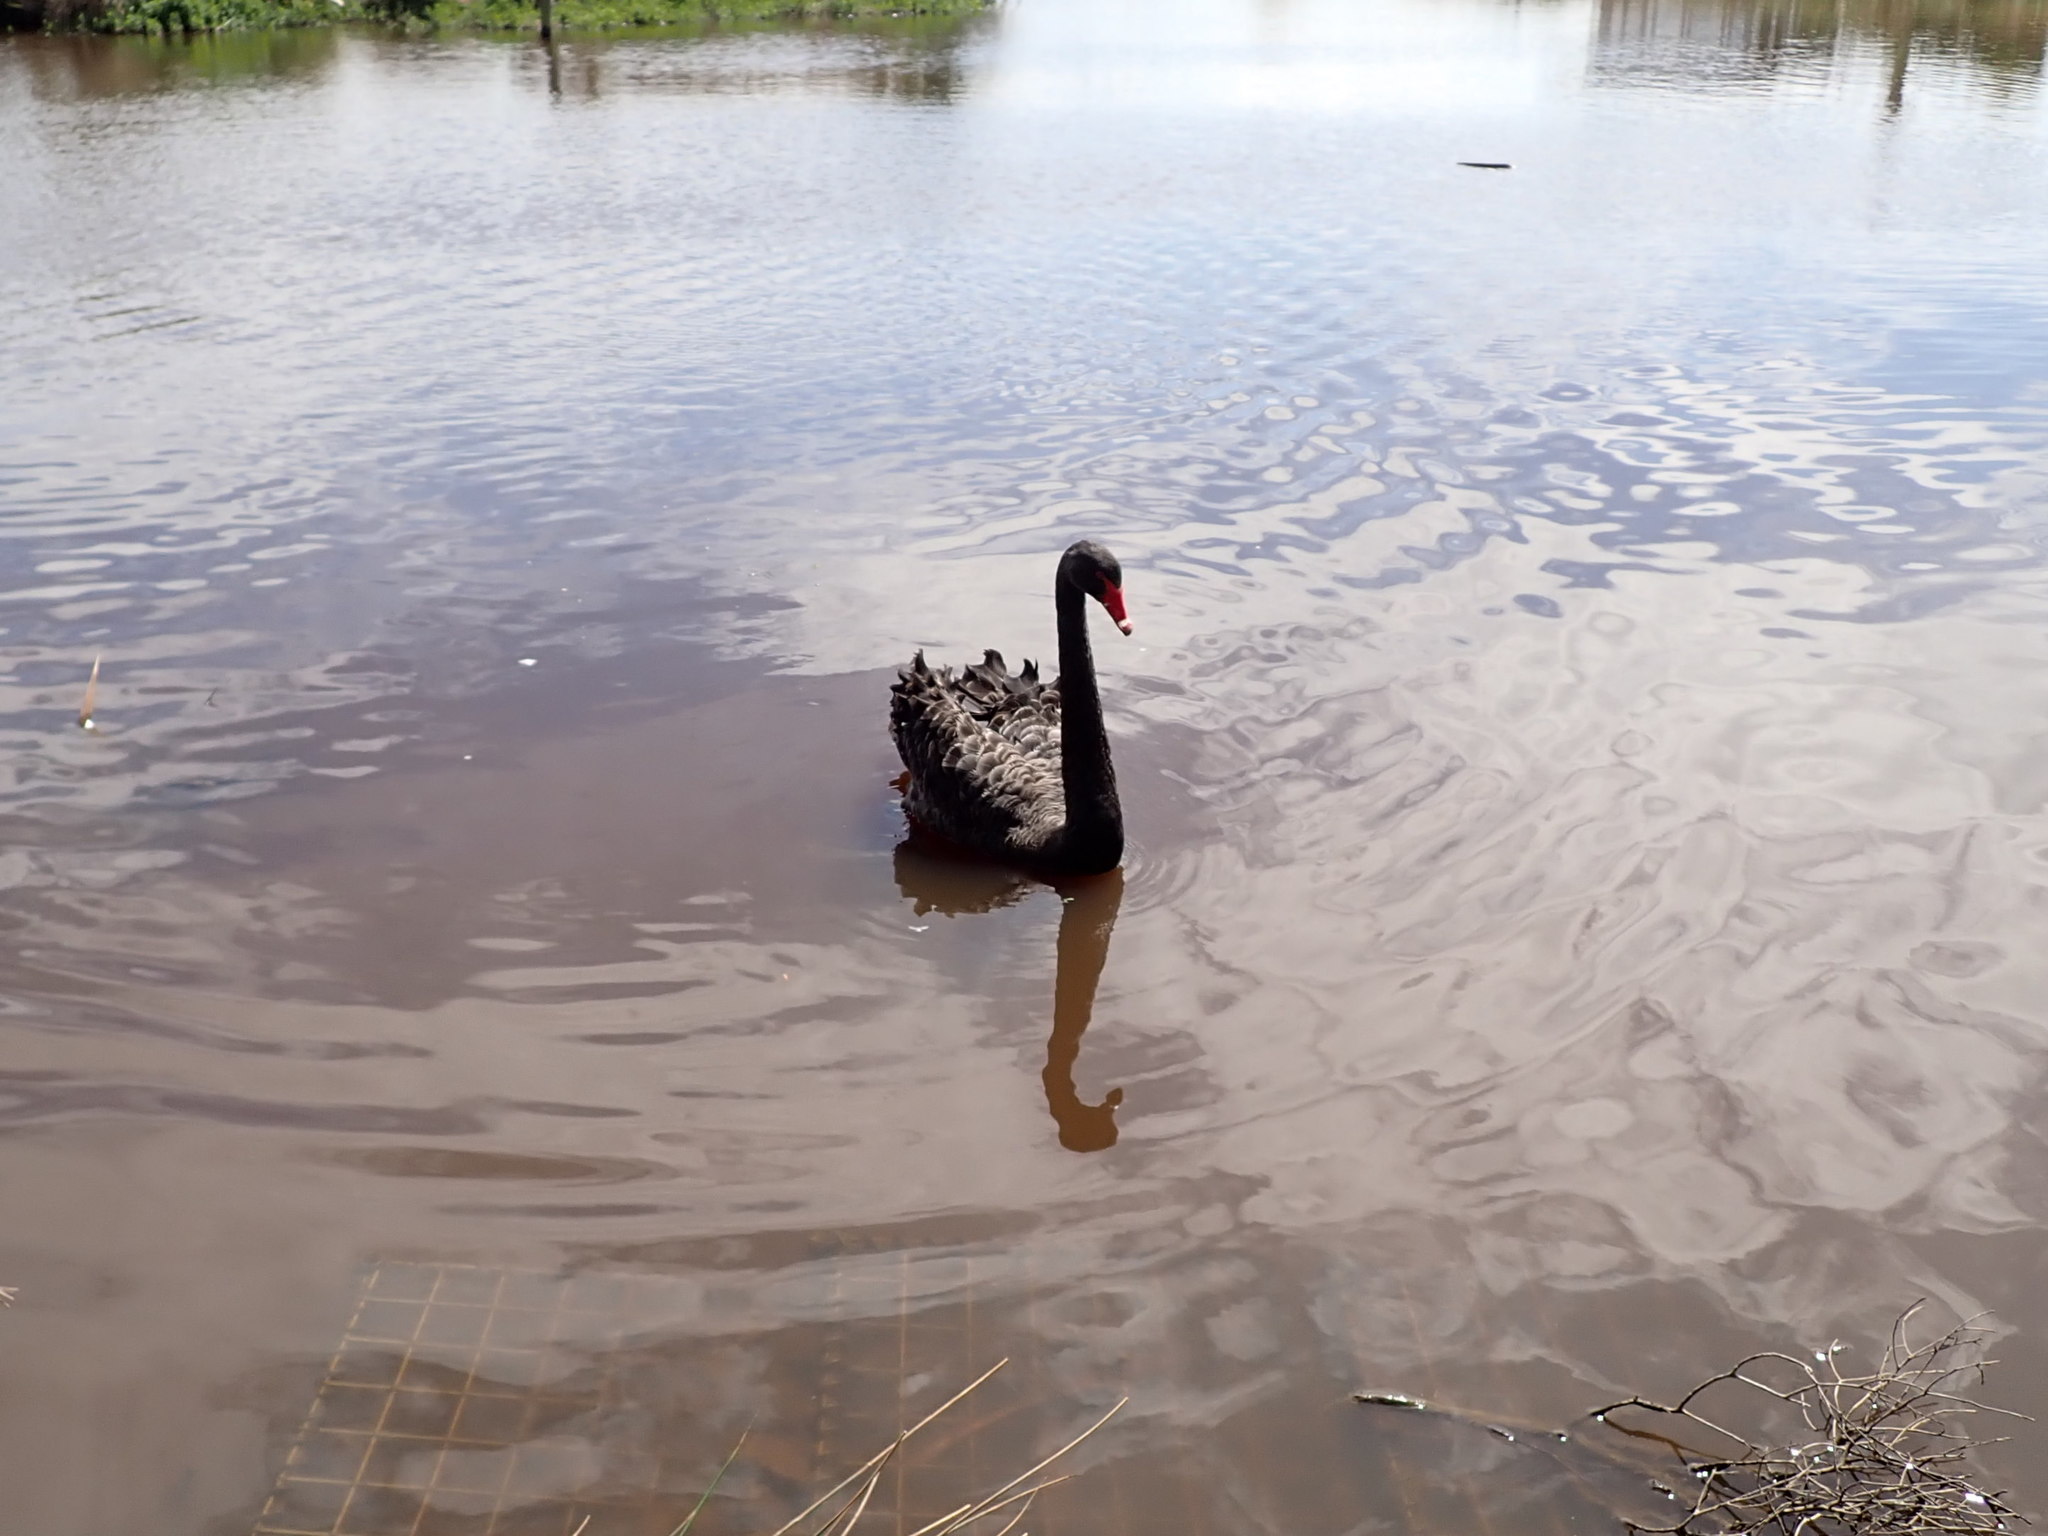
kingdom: Animalia
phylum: Chordata
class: Aves
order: Anseriformes
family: Anatidae
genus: Cygnus
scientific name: Cygnus atratus
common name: Black swan
